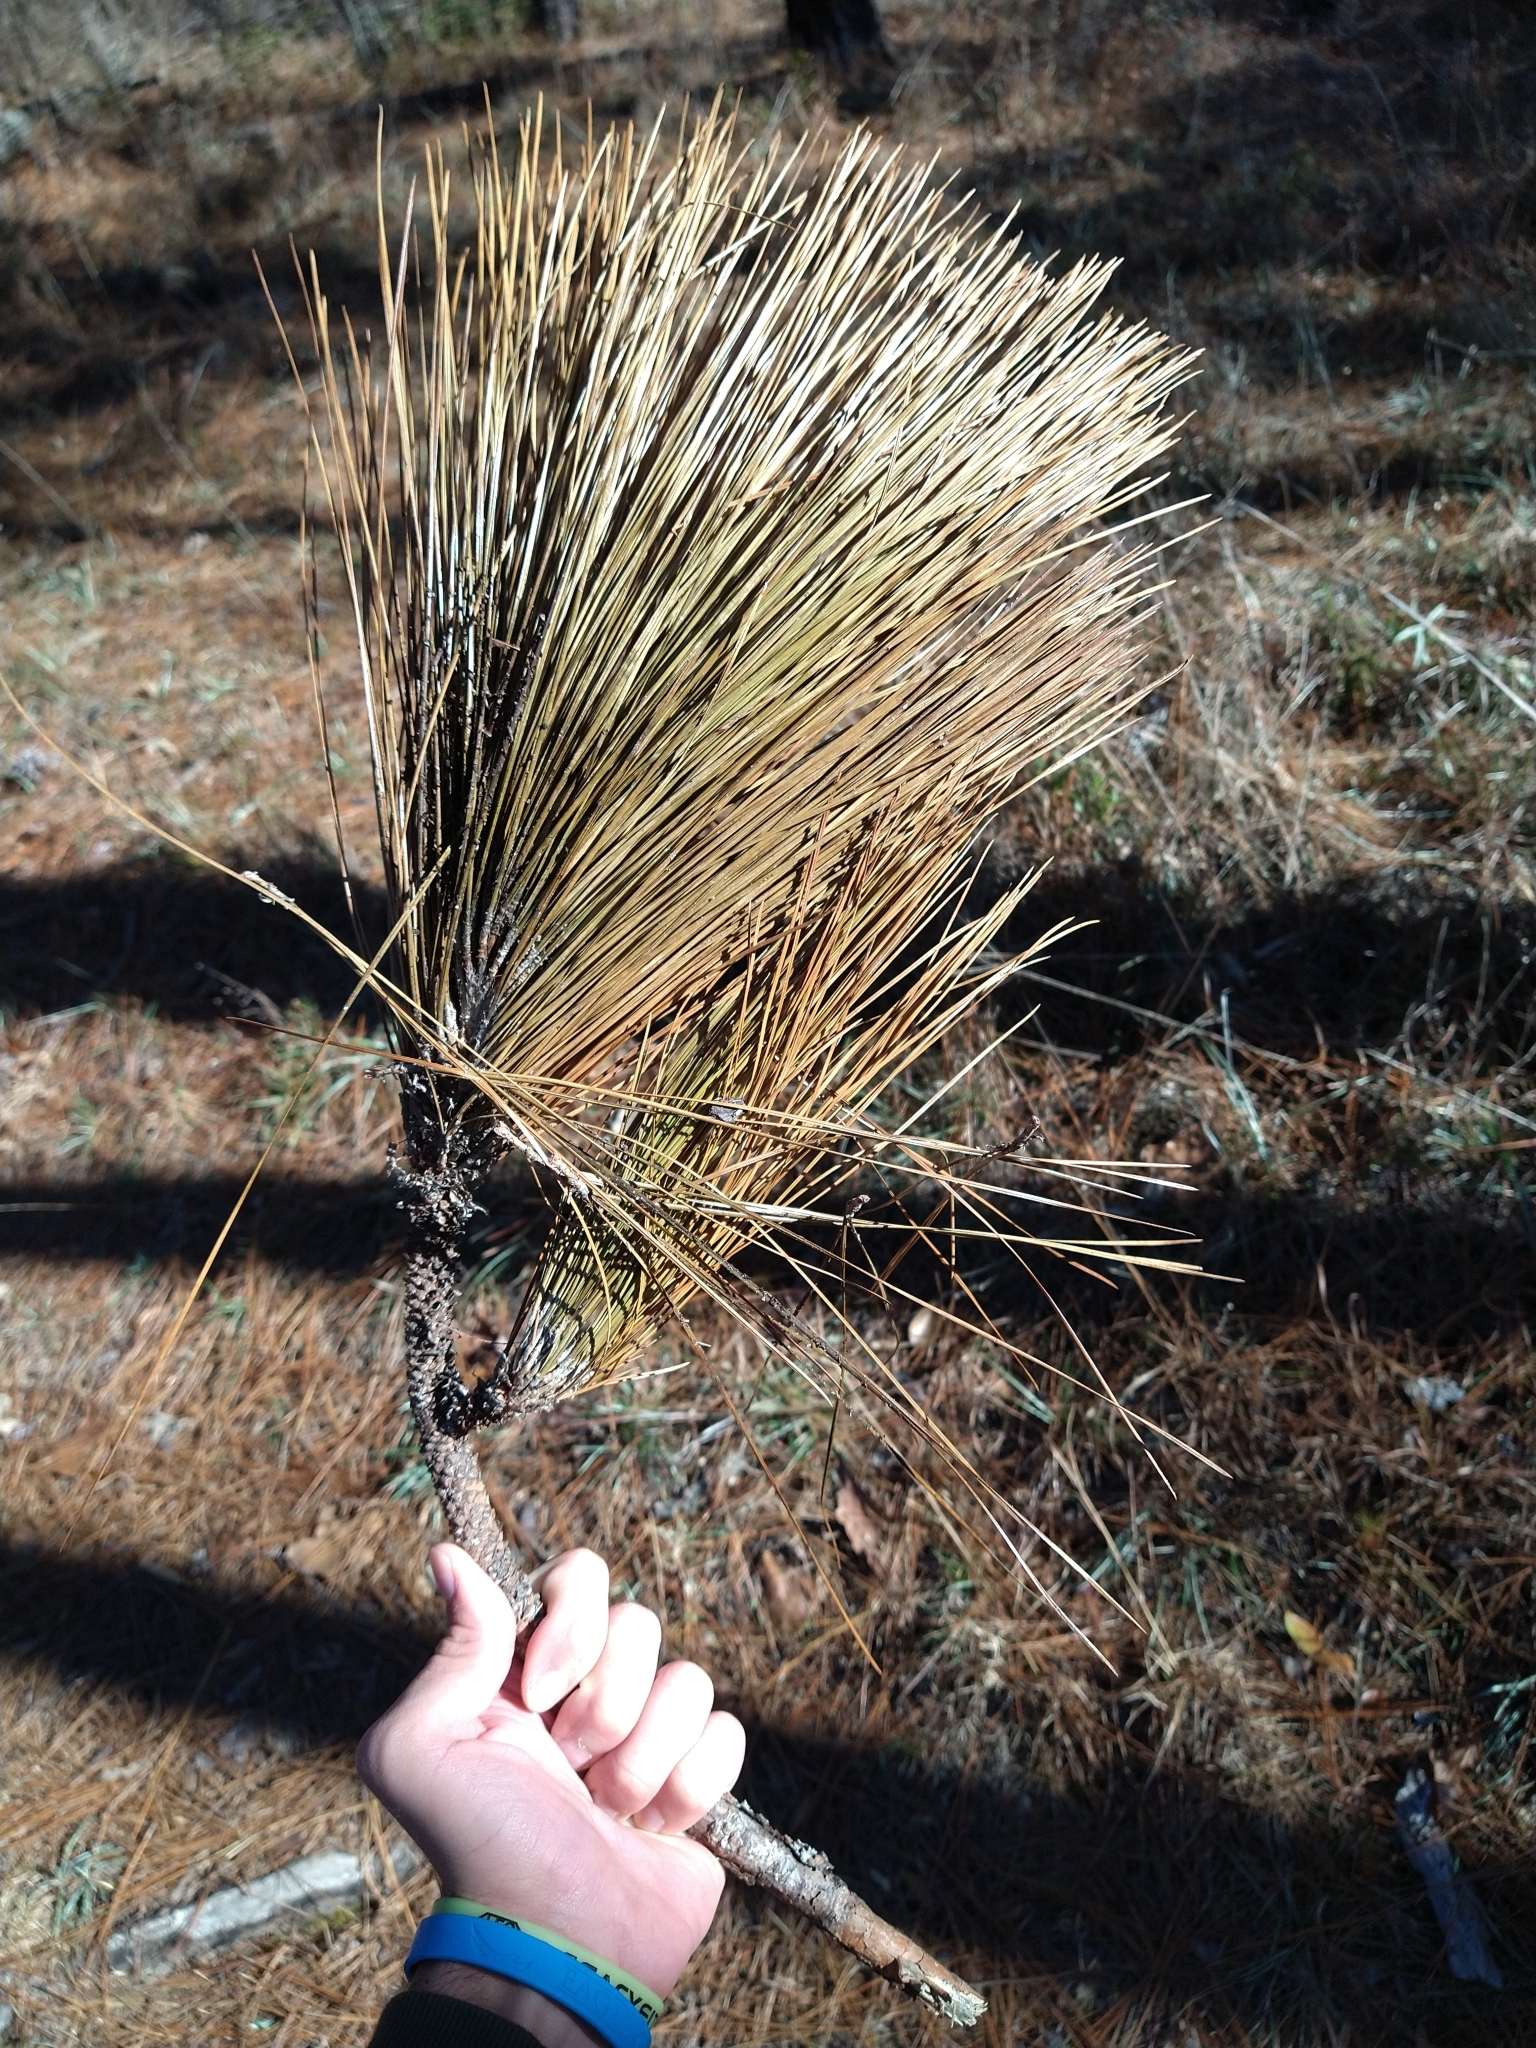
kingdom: Plantae
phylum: Tracheophyta
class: Pinopsida
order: Pinales
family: Pinaceae
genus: Pinus
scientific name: Pinus palustris
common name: Longleaf pine
